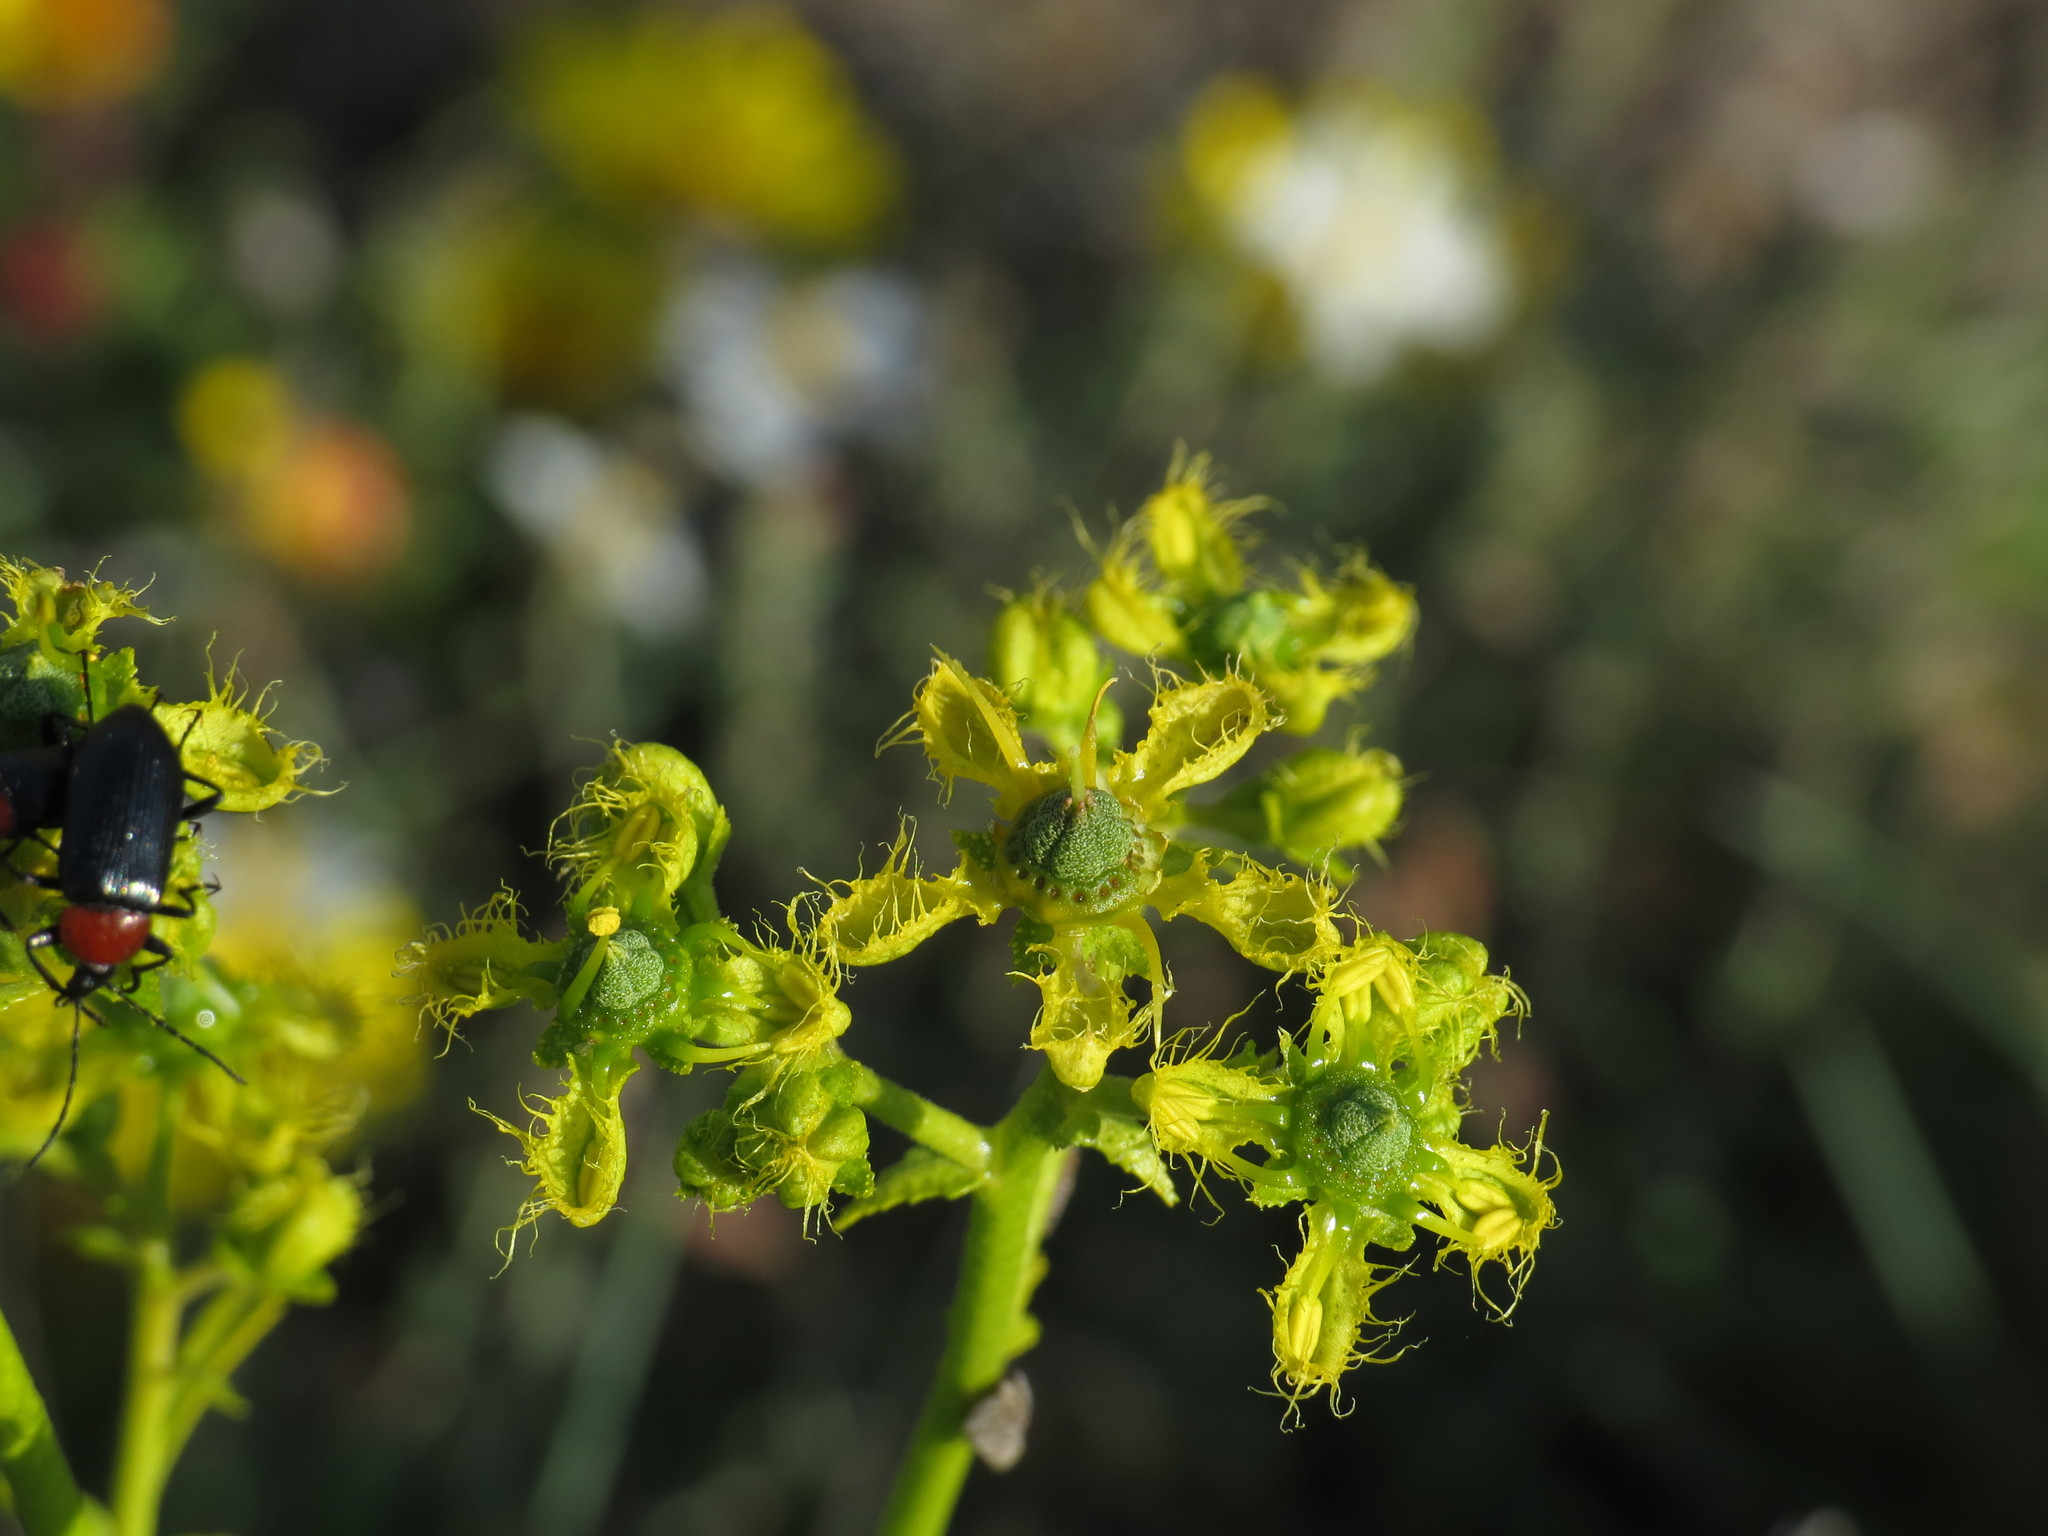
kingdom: Plantae
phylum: Tracheophyta
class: Magnoliopsida
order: Sapindales
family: Rutaceae
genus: Ruta
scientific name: Ruta angustifolia
